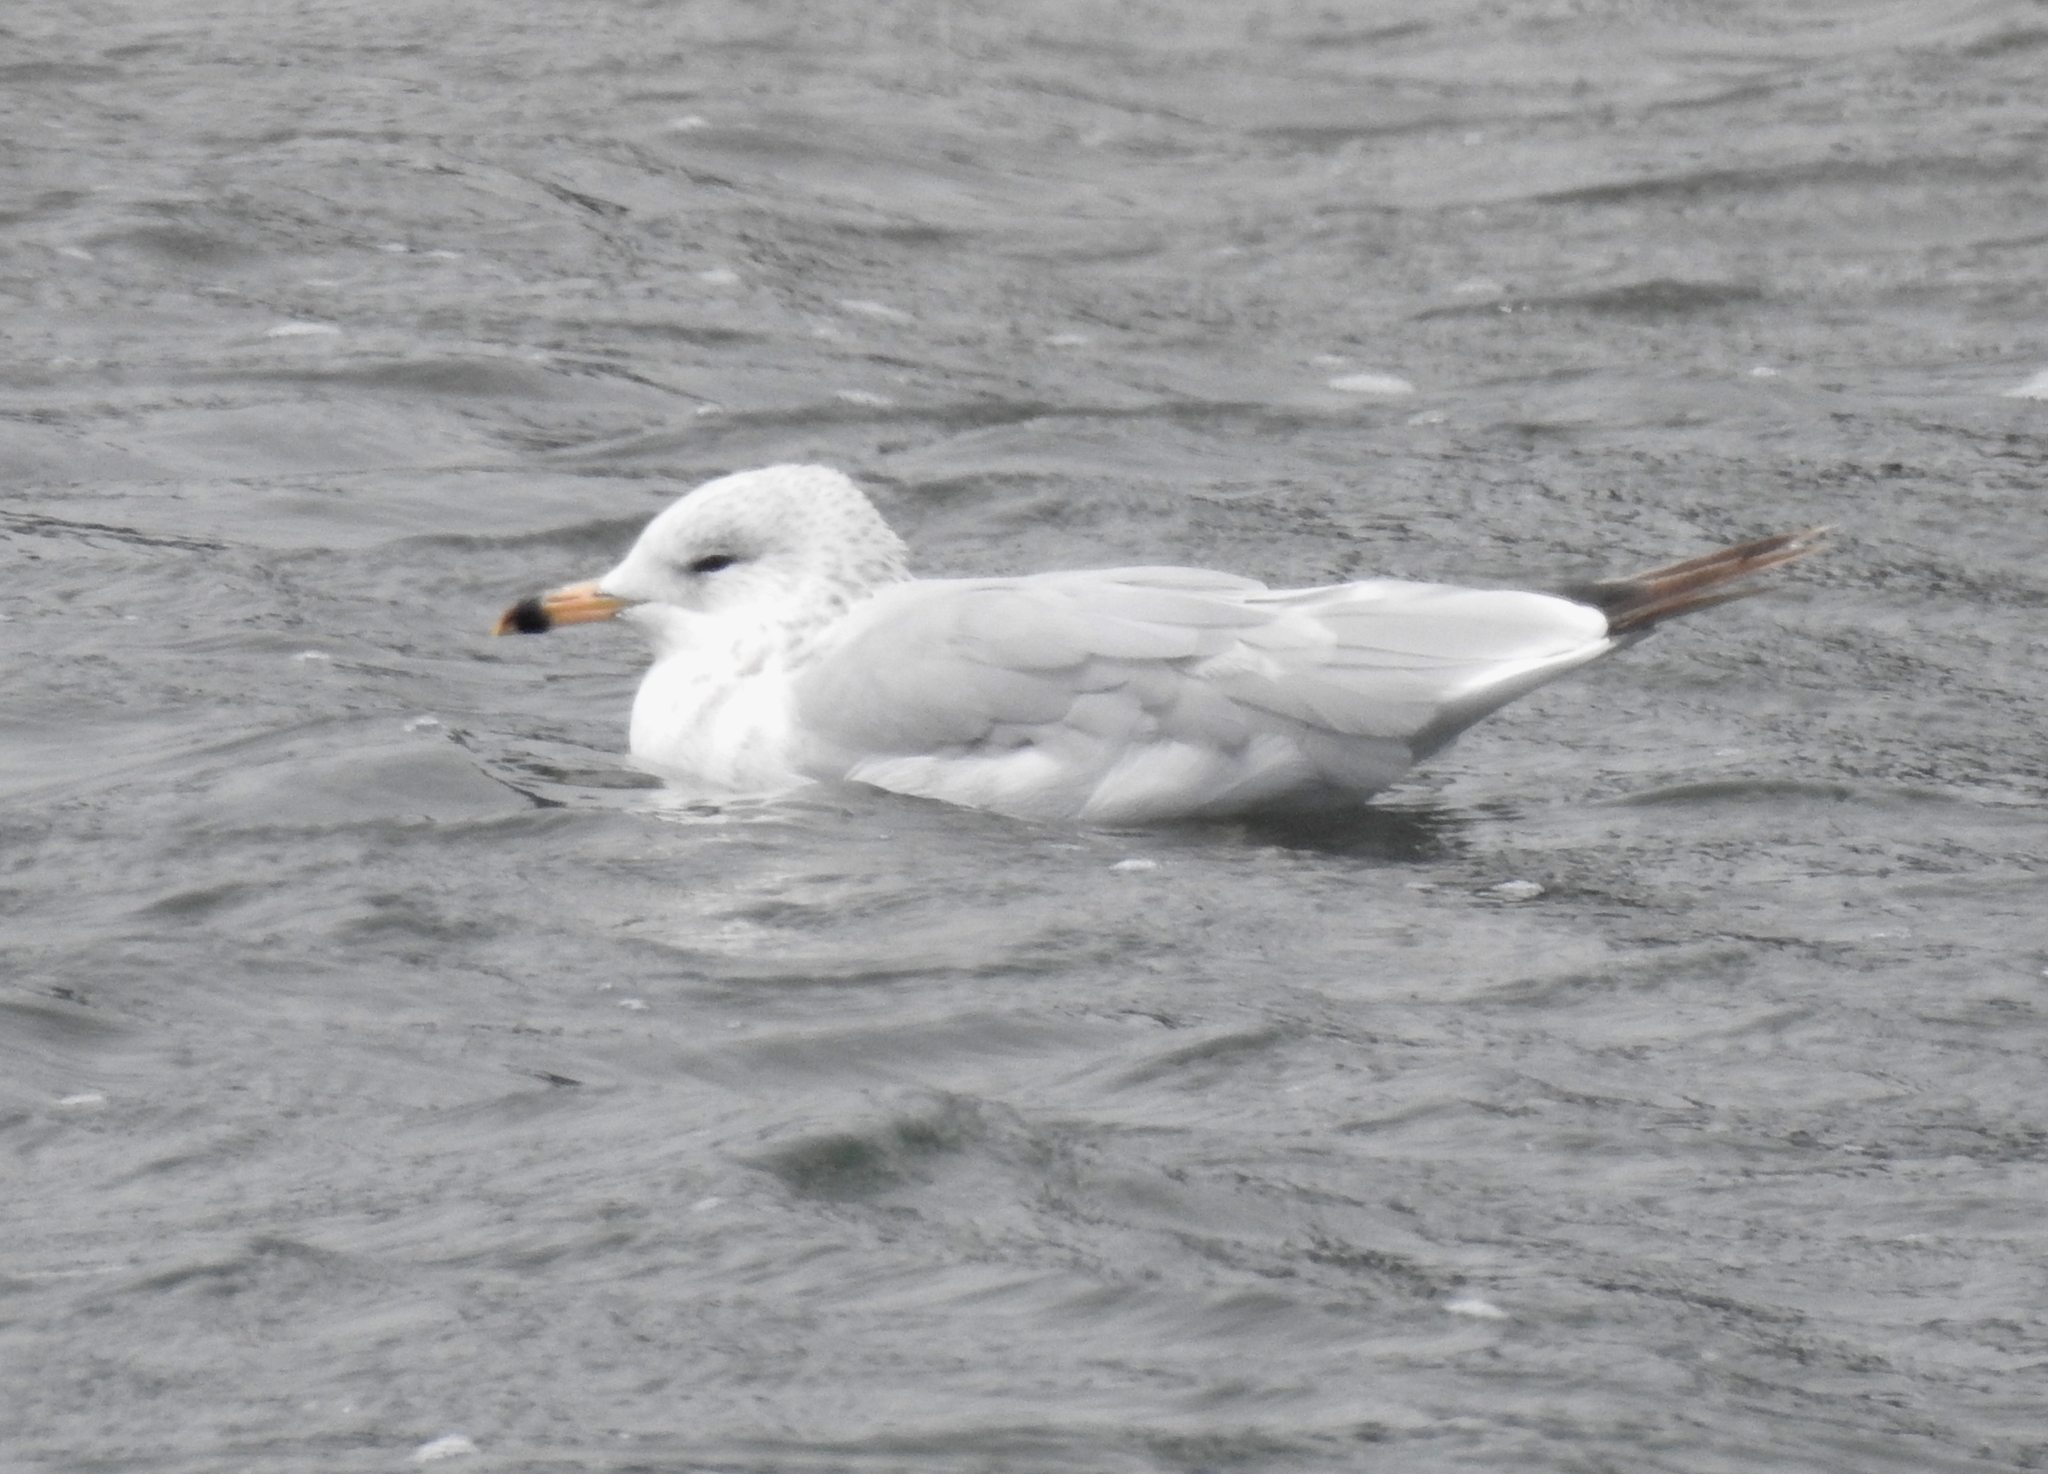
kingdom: Animalia
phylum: Chordata
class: Aves
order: Charadriiformes
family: Laridae
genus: Larus
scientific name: Larus delawarensis
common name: Ring-billed gull
